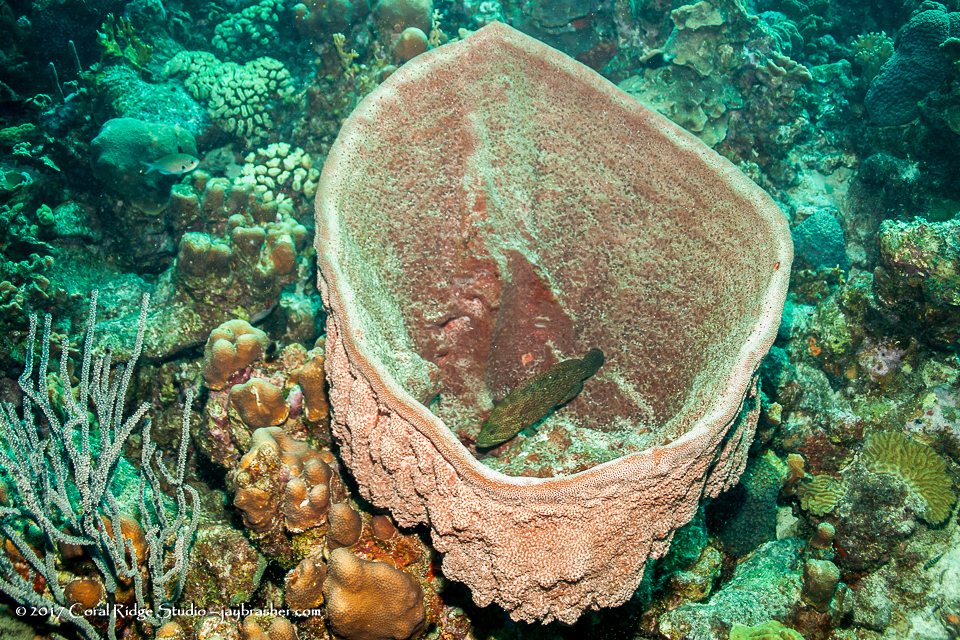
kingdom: Animalia
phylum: Porifera
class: Demospongiae
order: Dictyoceratida
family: Irciniidae
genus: Ircinia
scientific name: Ircinia campana
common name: Vase sponge
